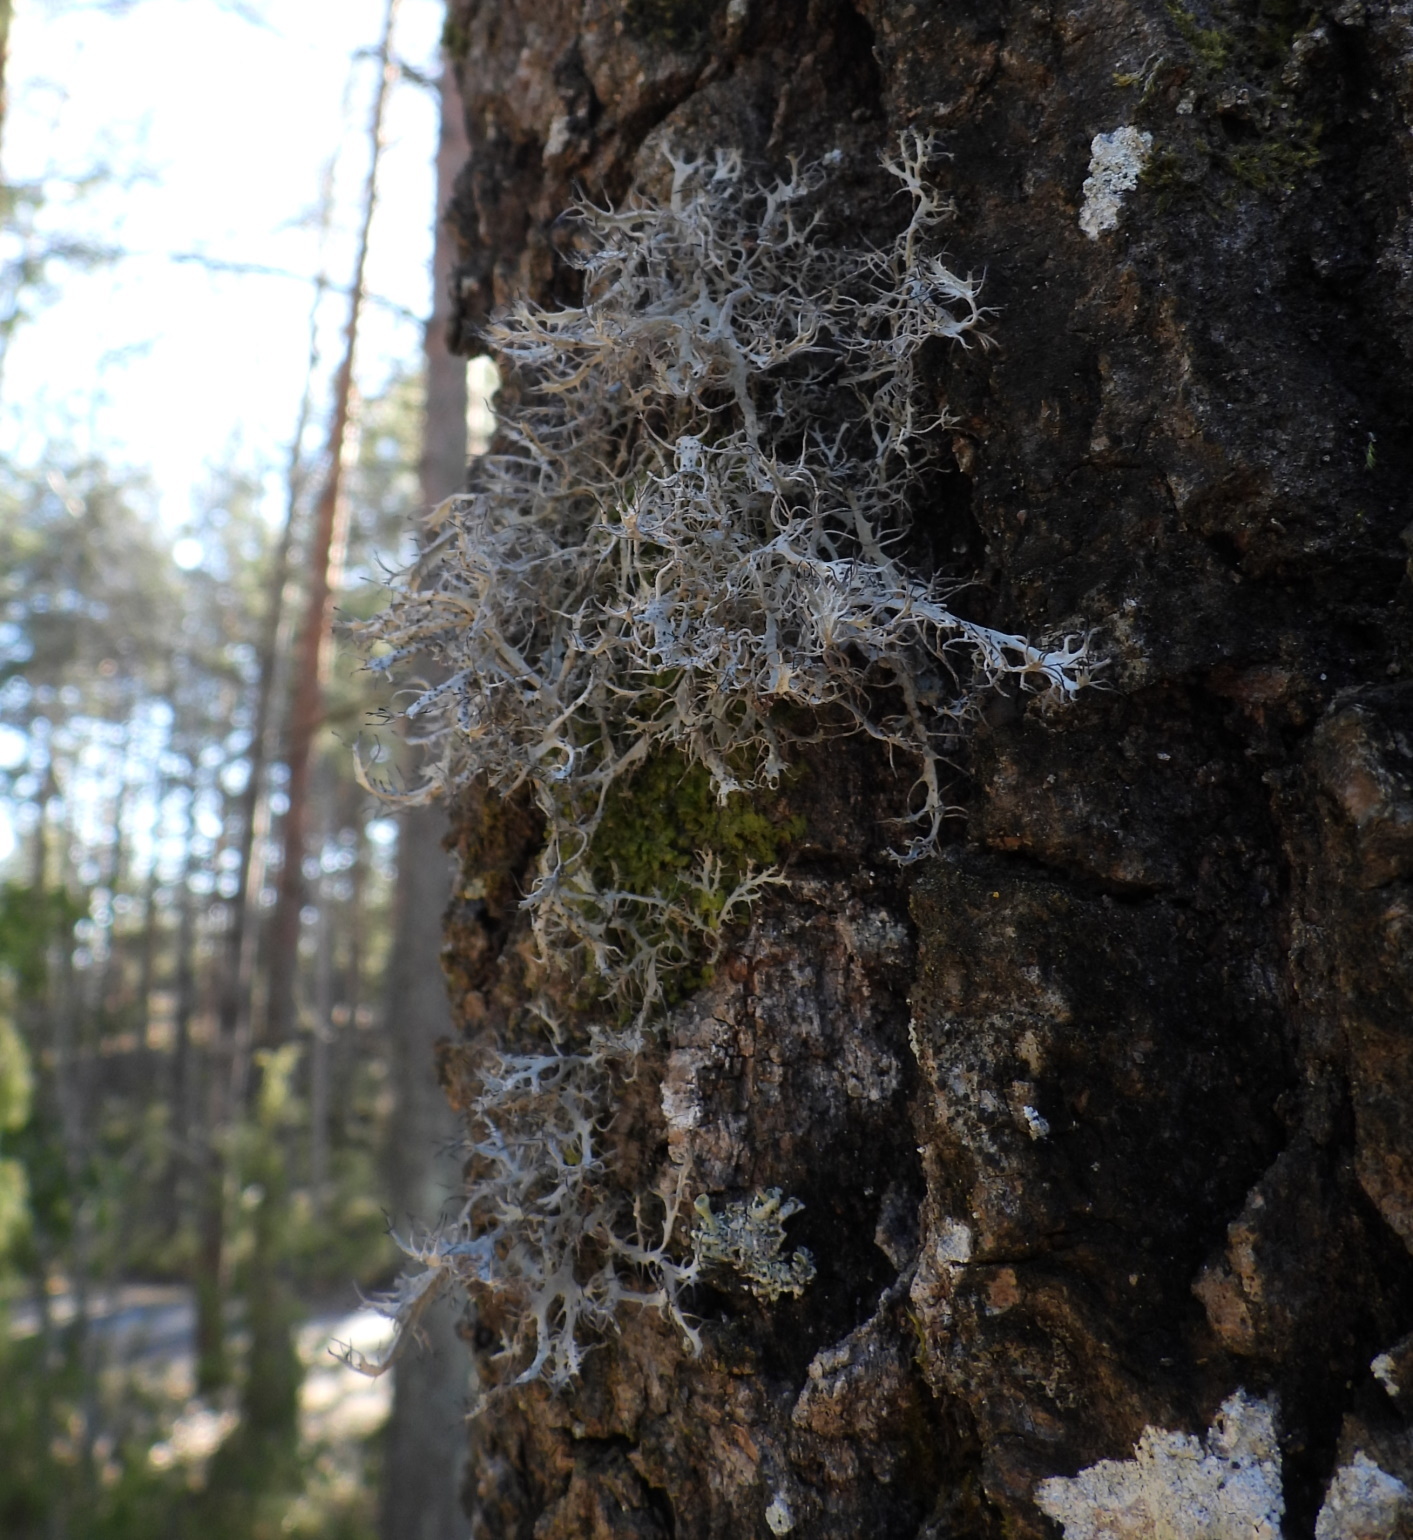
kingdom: Fungi
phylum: Ascomycota
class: Lecanoromycetes
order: Caliciales
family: Physciaceae
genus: Anaptychia
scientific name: Anaptychia ciliaris
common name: Great ciliated lichen
